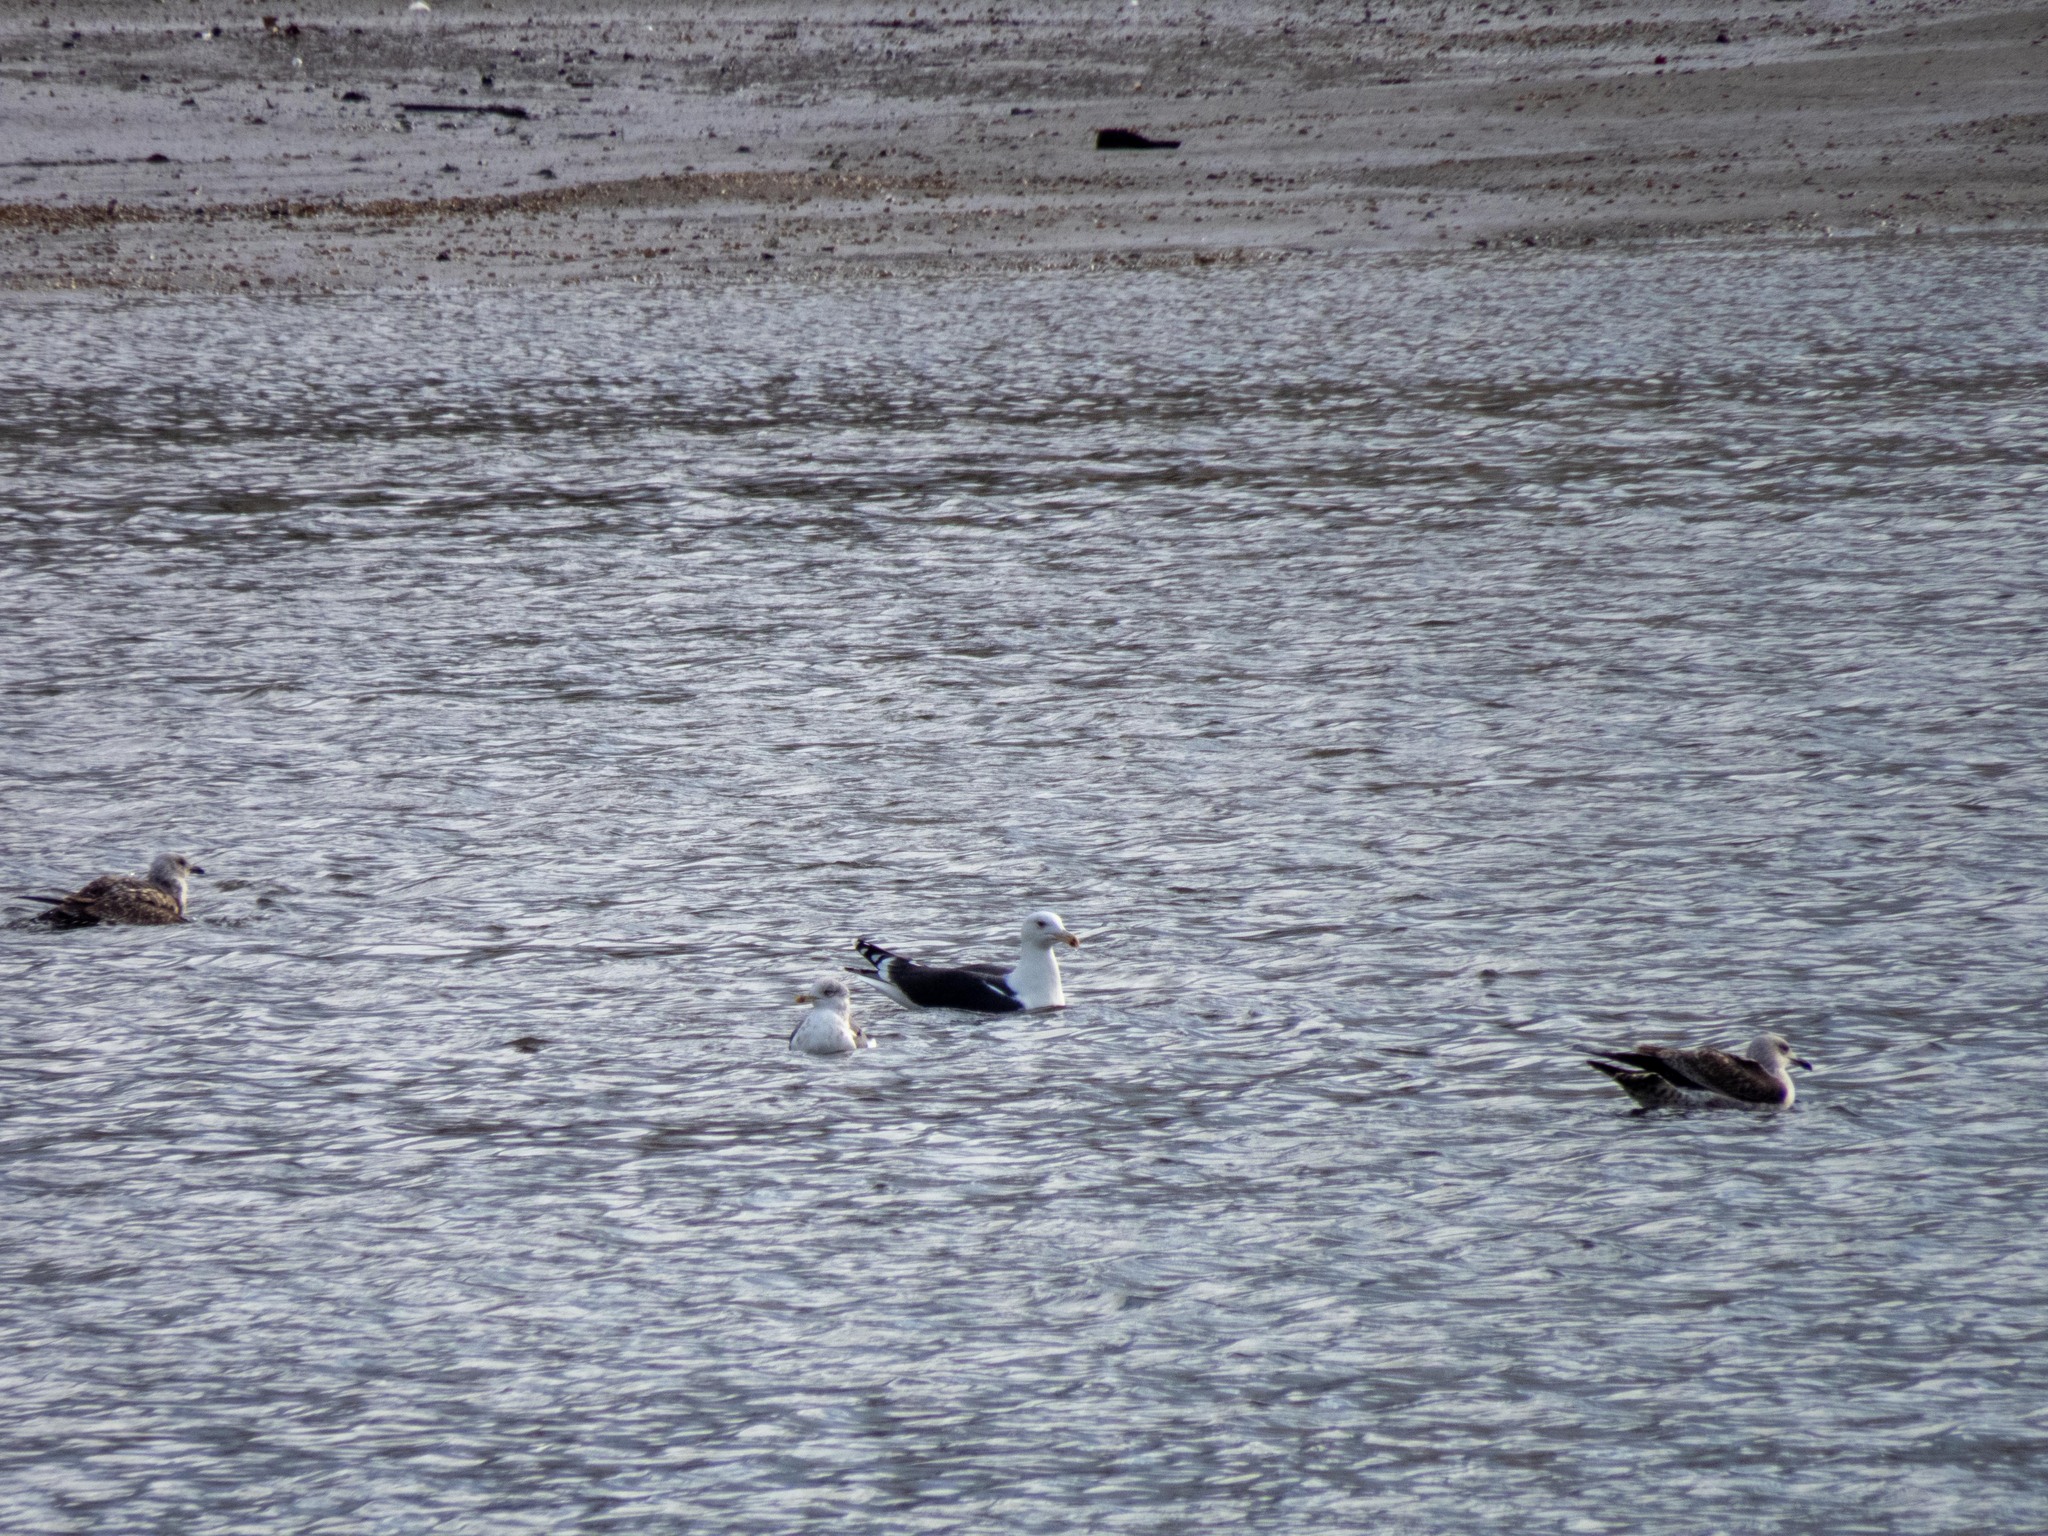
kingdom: Animalia
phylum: Chordata
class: Aves
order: Charadriiformes
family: Laridae
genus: Larus
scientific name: Larus marinus
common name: Great black-backed gull
